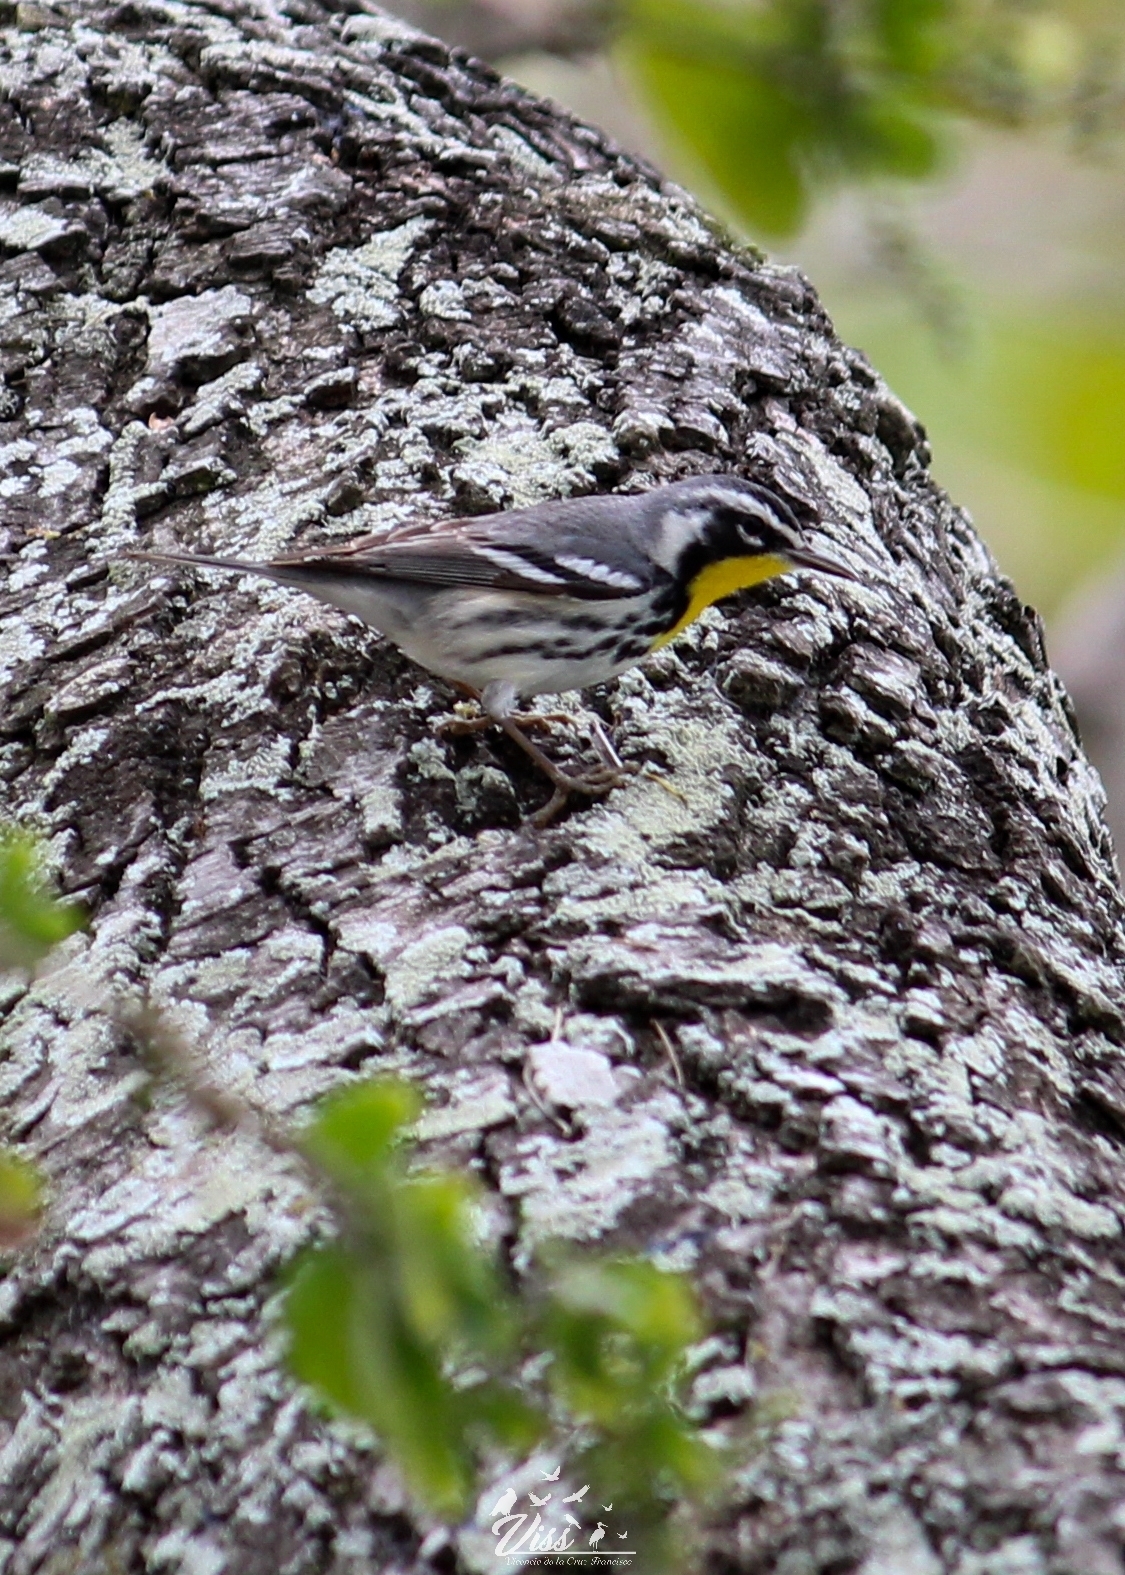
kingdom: Animalia
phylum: Chordata
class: Aves
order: Passeriformes
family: Parulidae
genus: Setophaga
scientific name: Setophaga dominica
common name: Yellow-throated warbler
